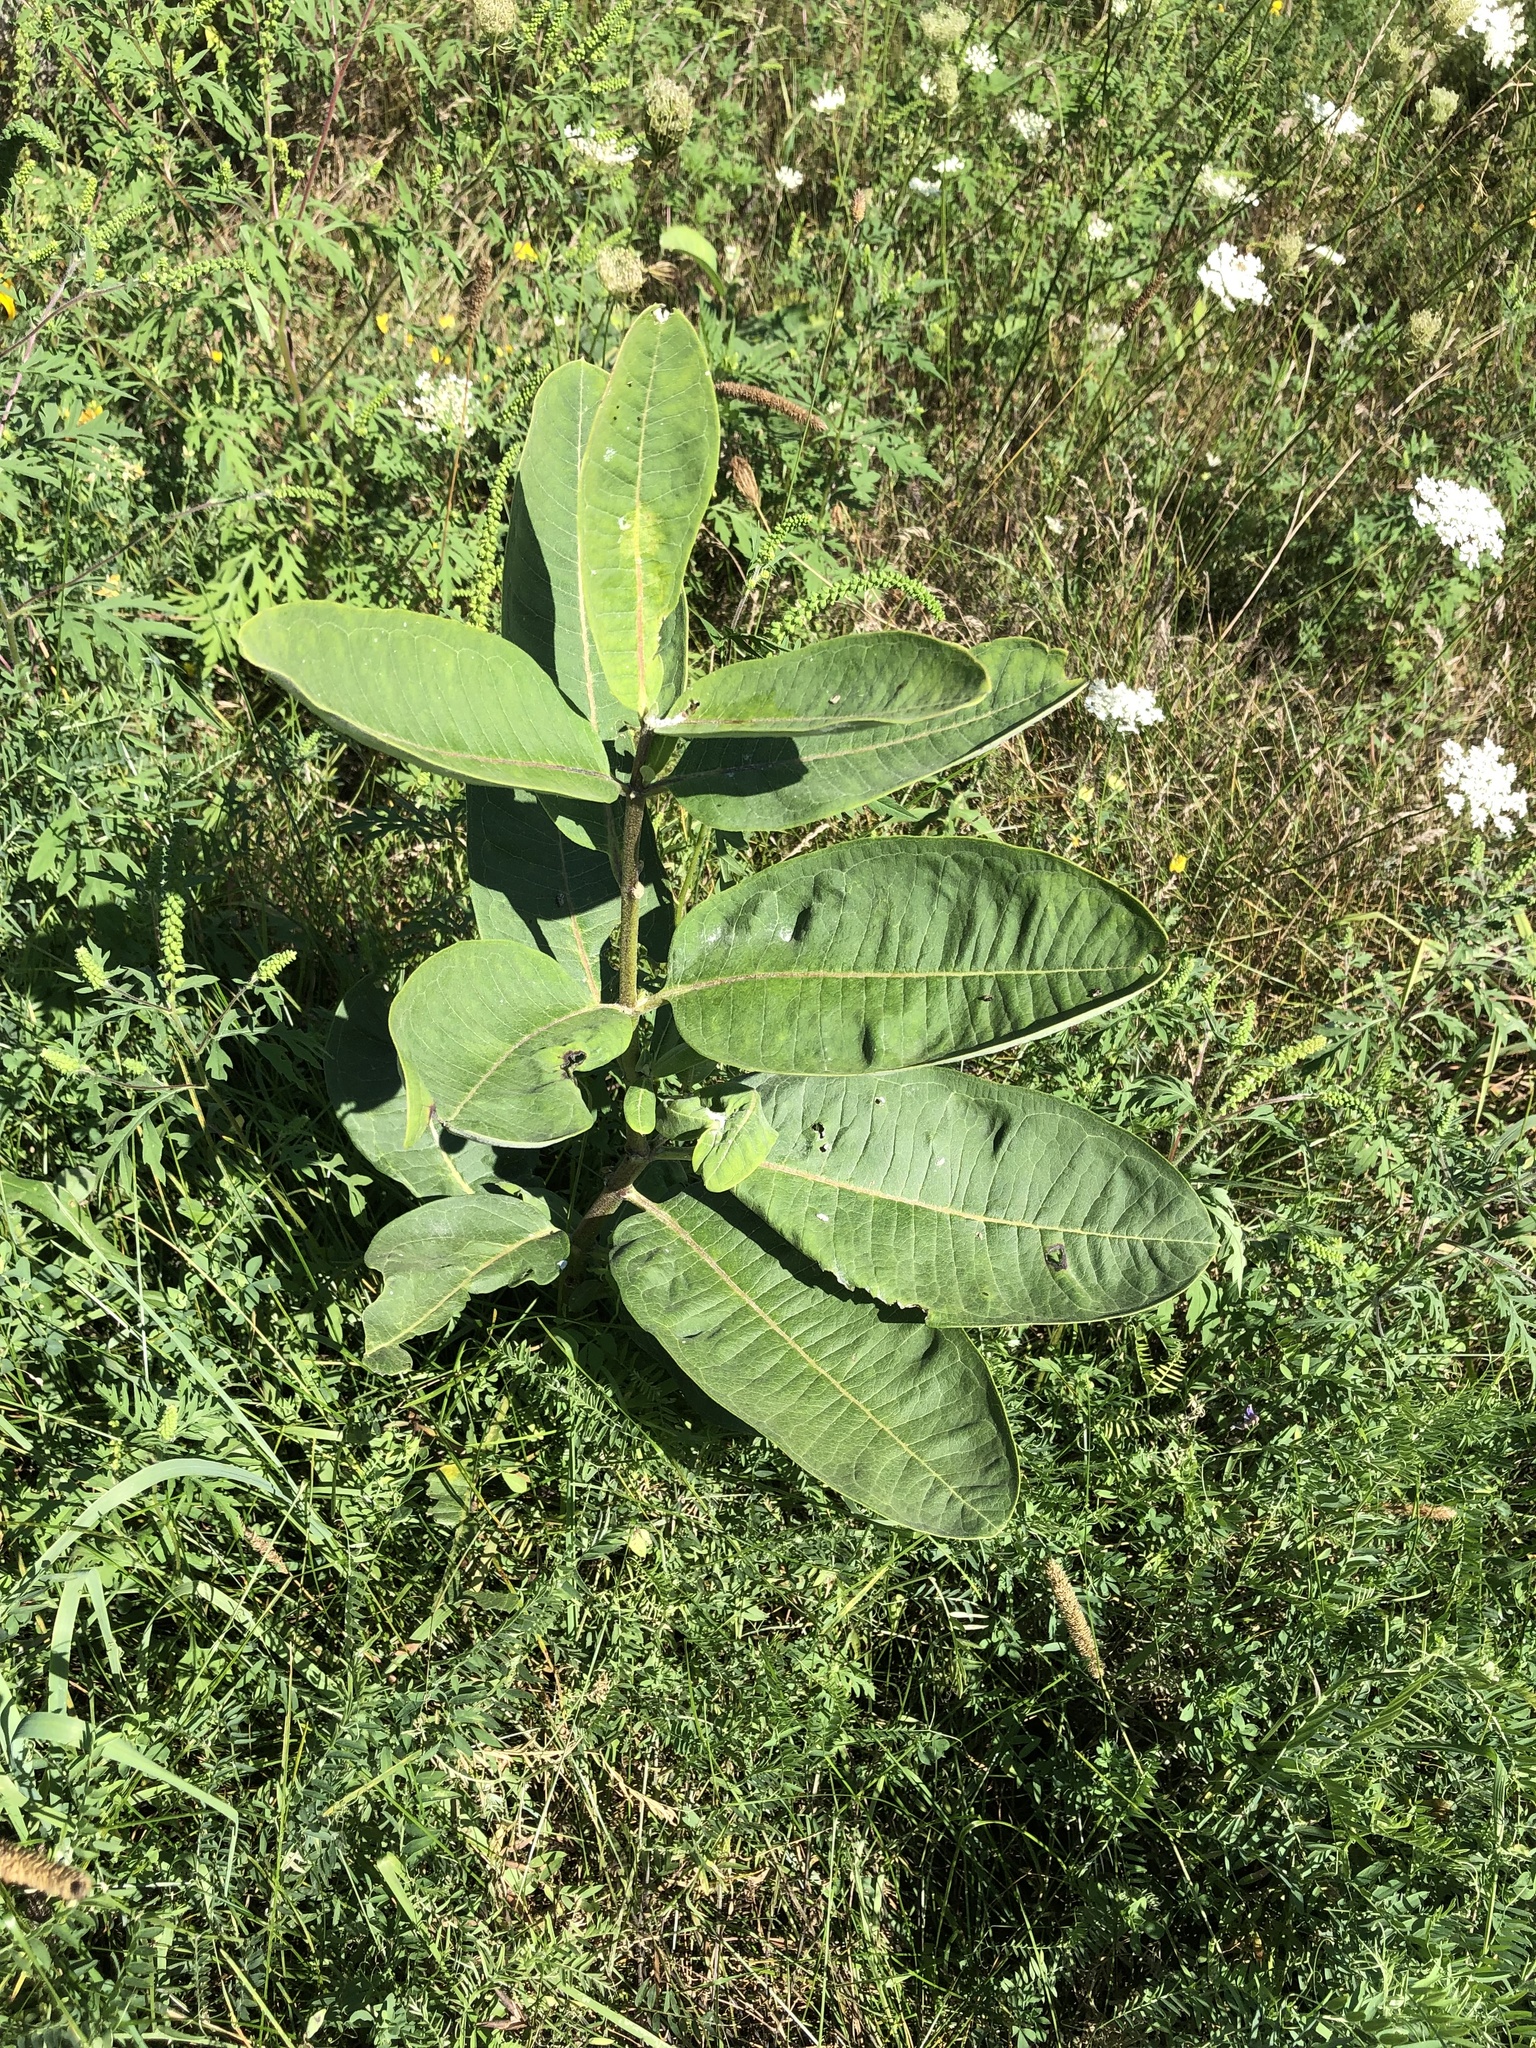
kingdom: Plantae
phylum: Tracheophyta
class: Magnoliopsida
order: Gentianales
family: Apocynaceae
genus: Asclepias
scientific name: Asclepias syriaca
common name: Common milkweed
